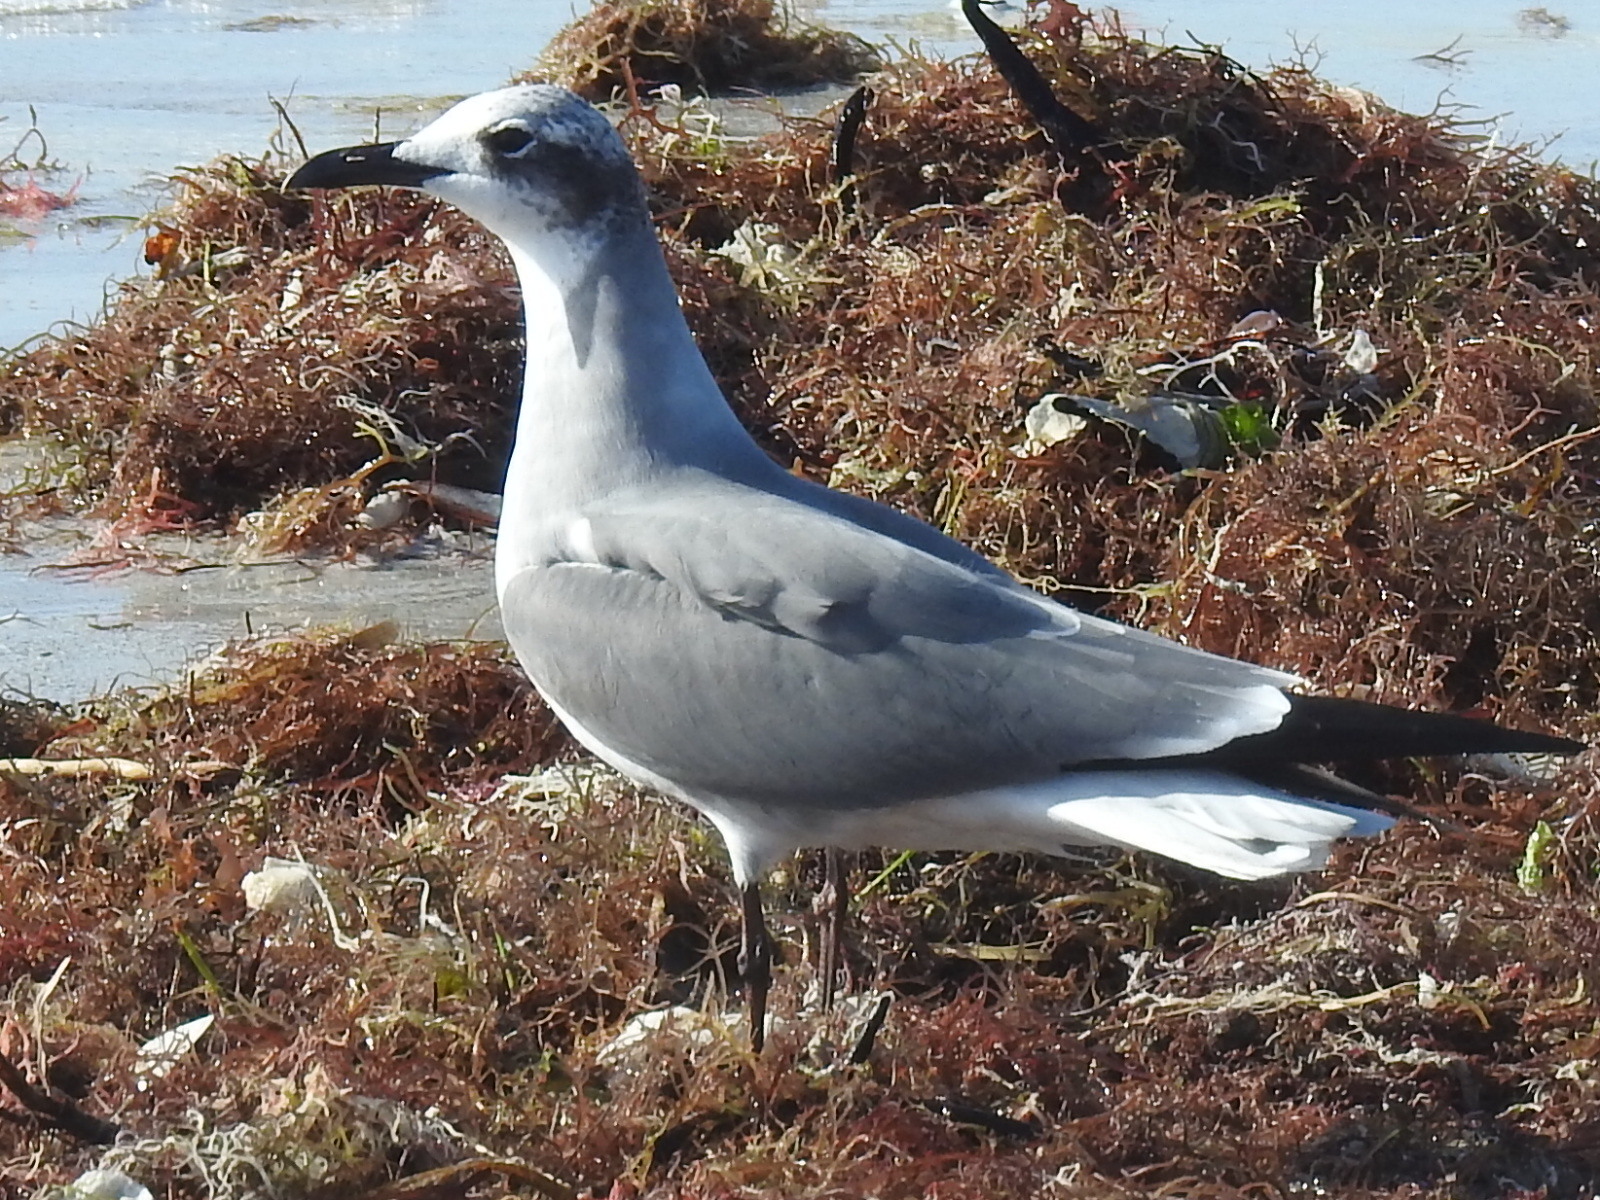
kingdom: Animalia
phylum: Chordata
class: Aves
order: Charadriiformes
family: Laridae
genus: Leucophaeus
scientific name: Leucophaeus atricilla
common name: Laughing gull
